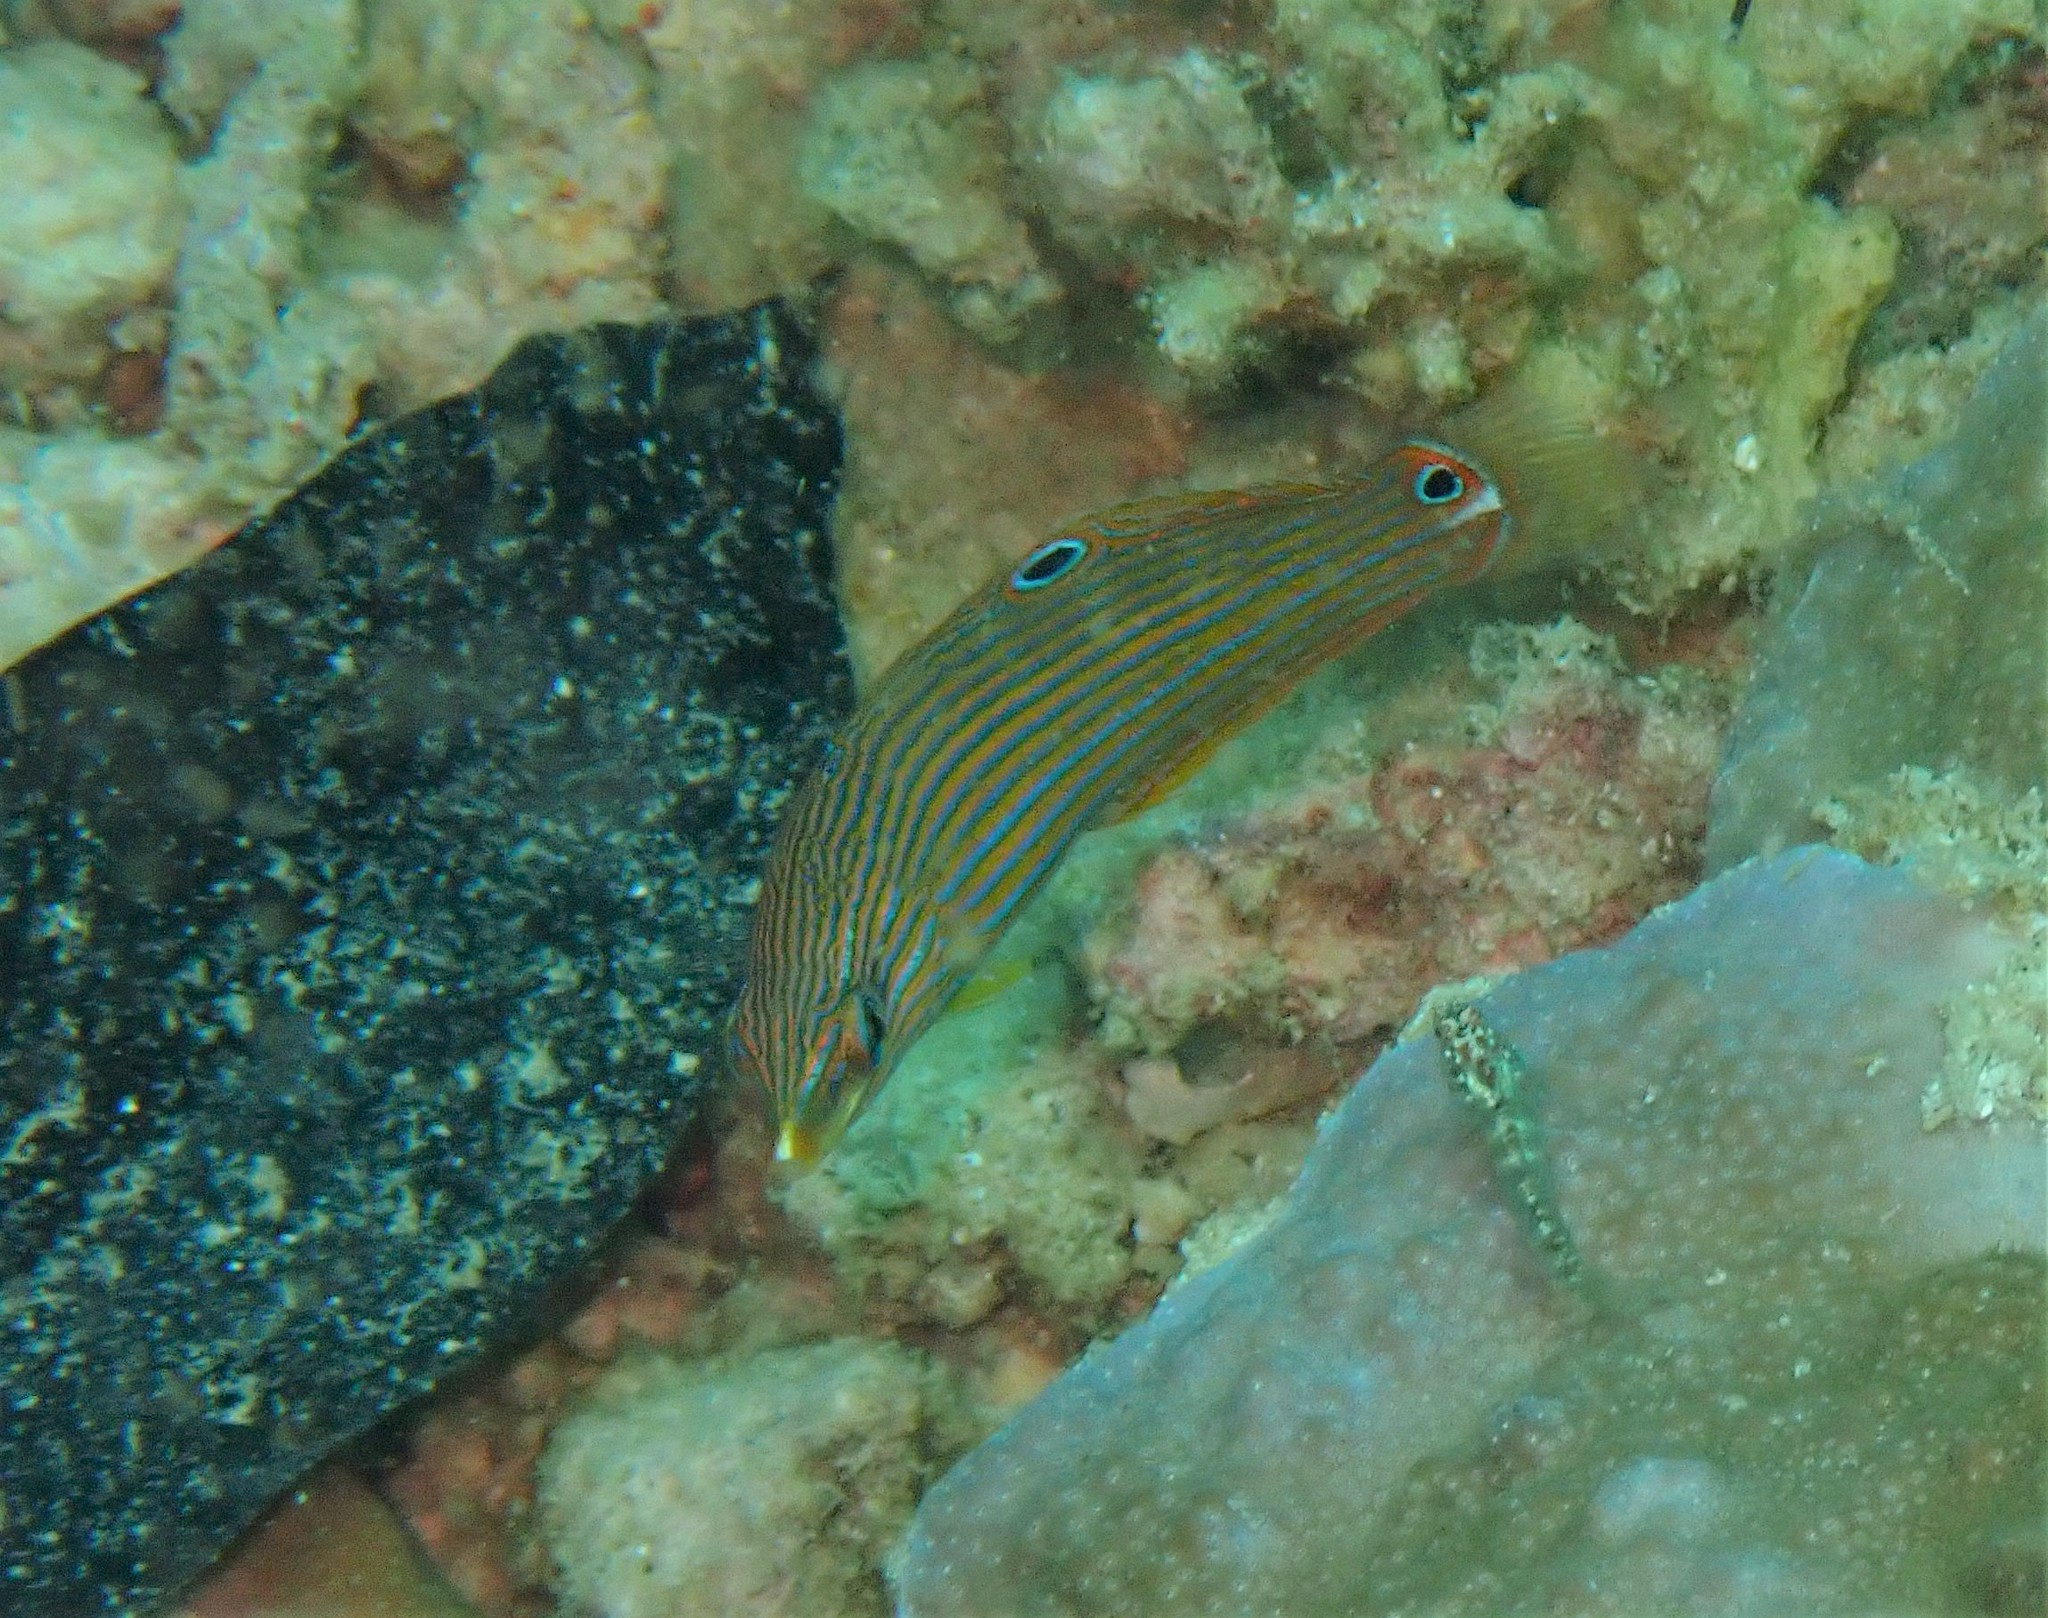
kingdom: Animalia
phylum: Chordata
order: Perciformes
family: Labridae
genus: Halichoeres
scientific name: Halichoeres melanurus
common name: Hoeven's wrasse
